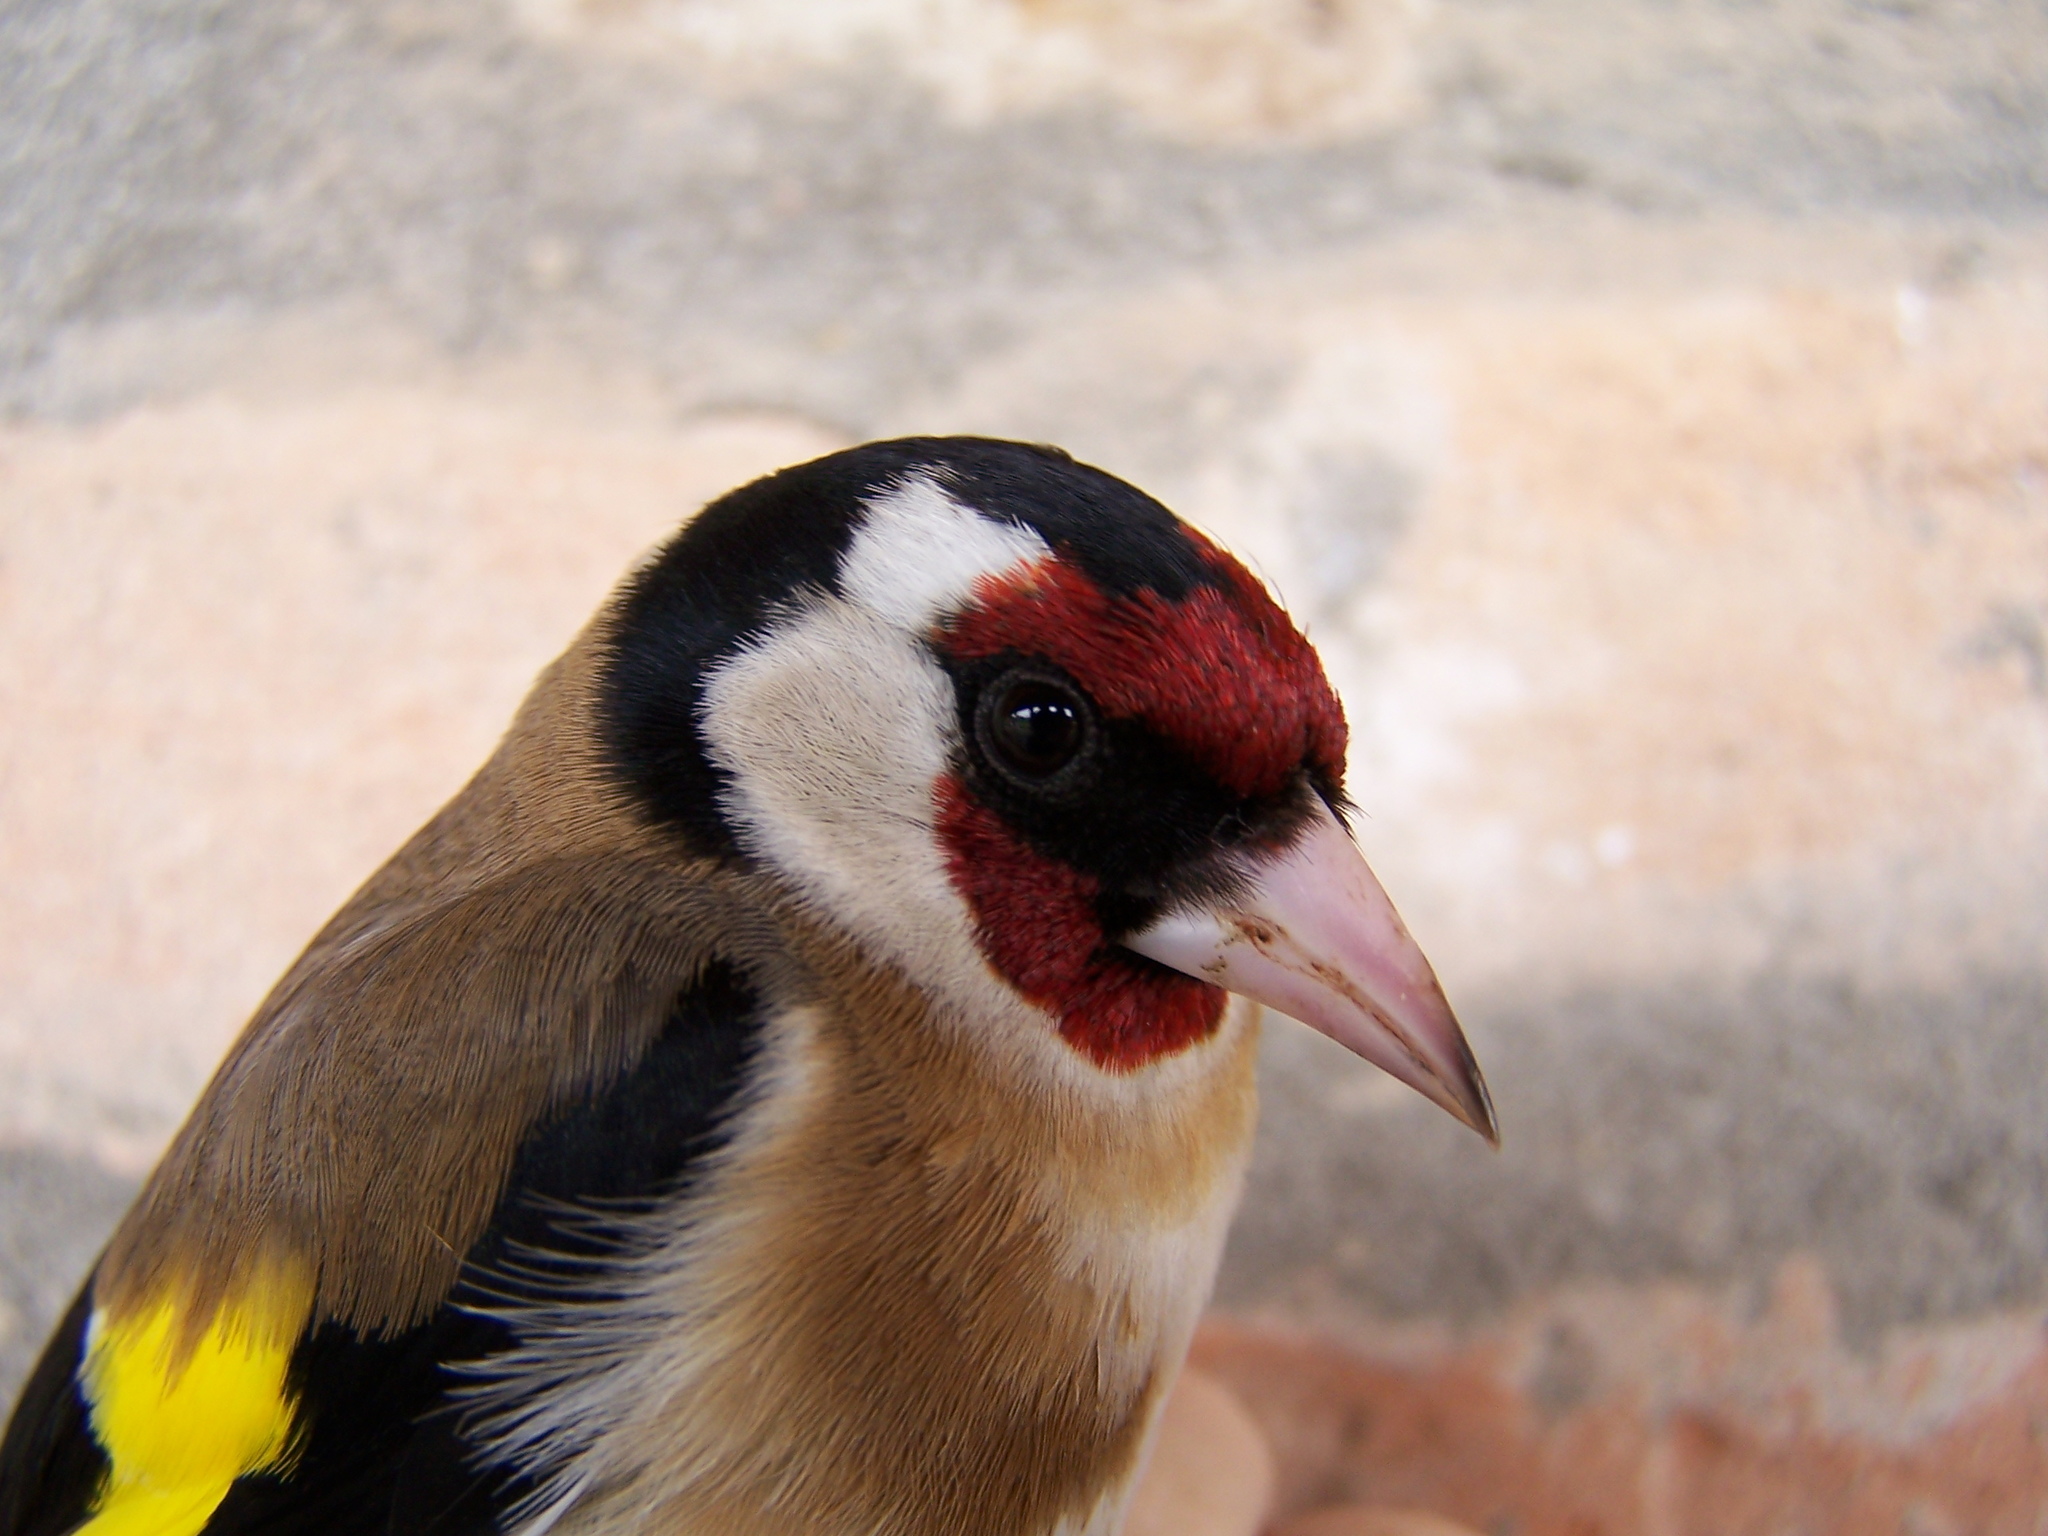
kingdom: Animalia
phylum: Chordata
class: Aves
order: Passeriformes
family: Fringillidae
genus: Carduelis
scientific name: Carduelis carduelis
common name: European goldfinch
